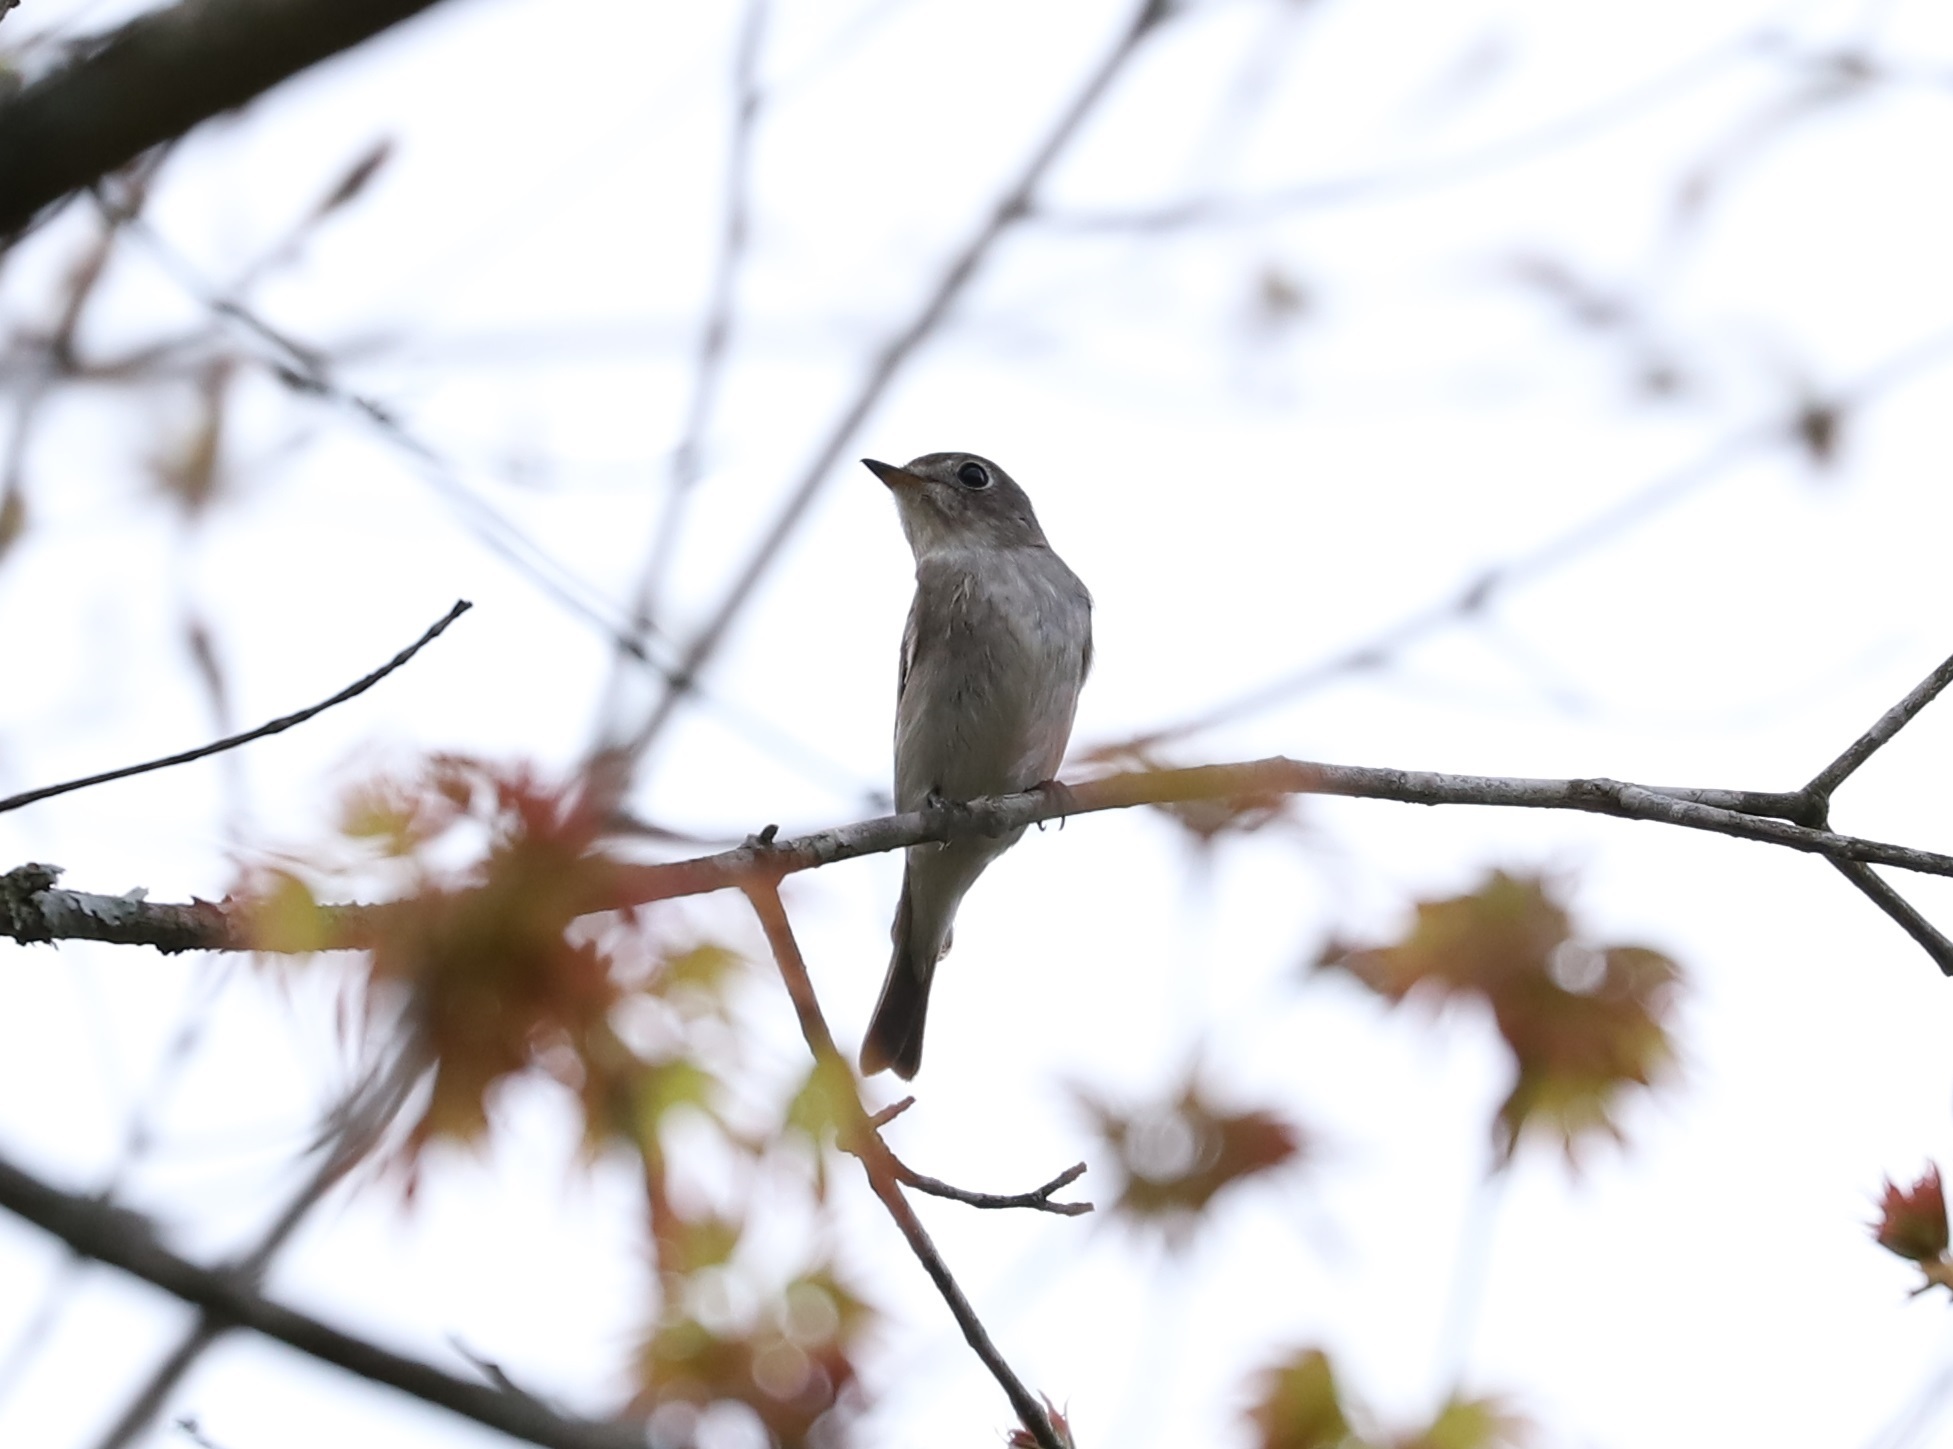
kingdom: Animalia
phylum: Chordata
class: Aves
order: Passeriformes
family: Muscicapidae
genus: Muscicapa
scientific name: Muscicapa latirostris
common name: Asian brown flycatcher
